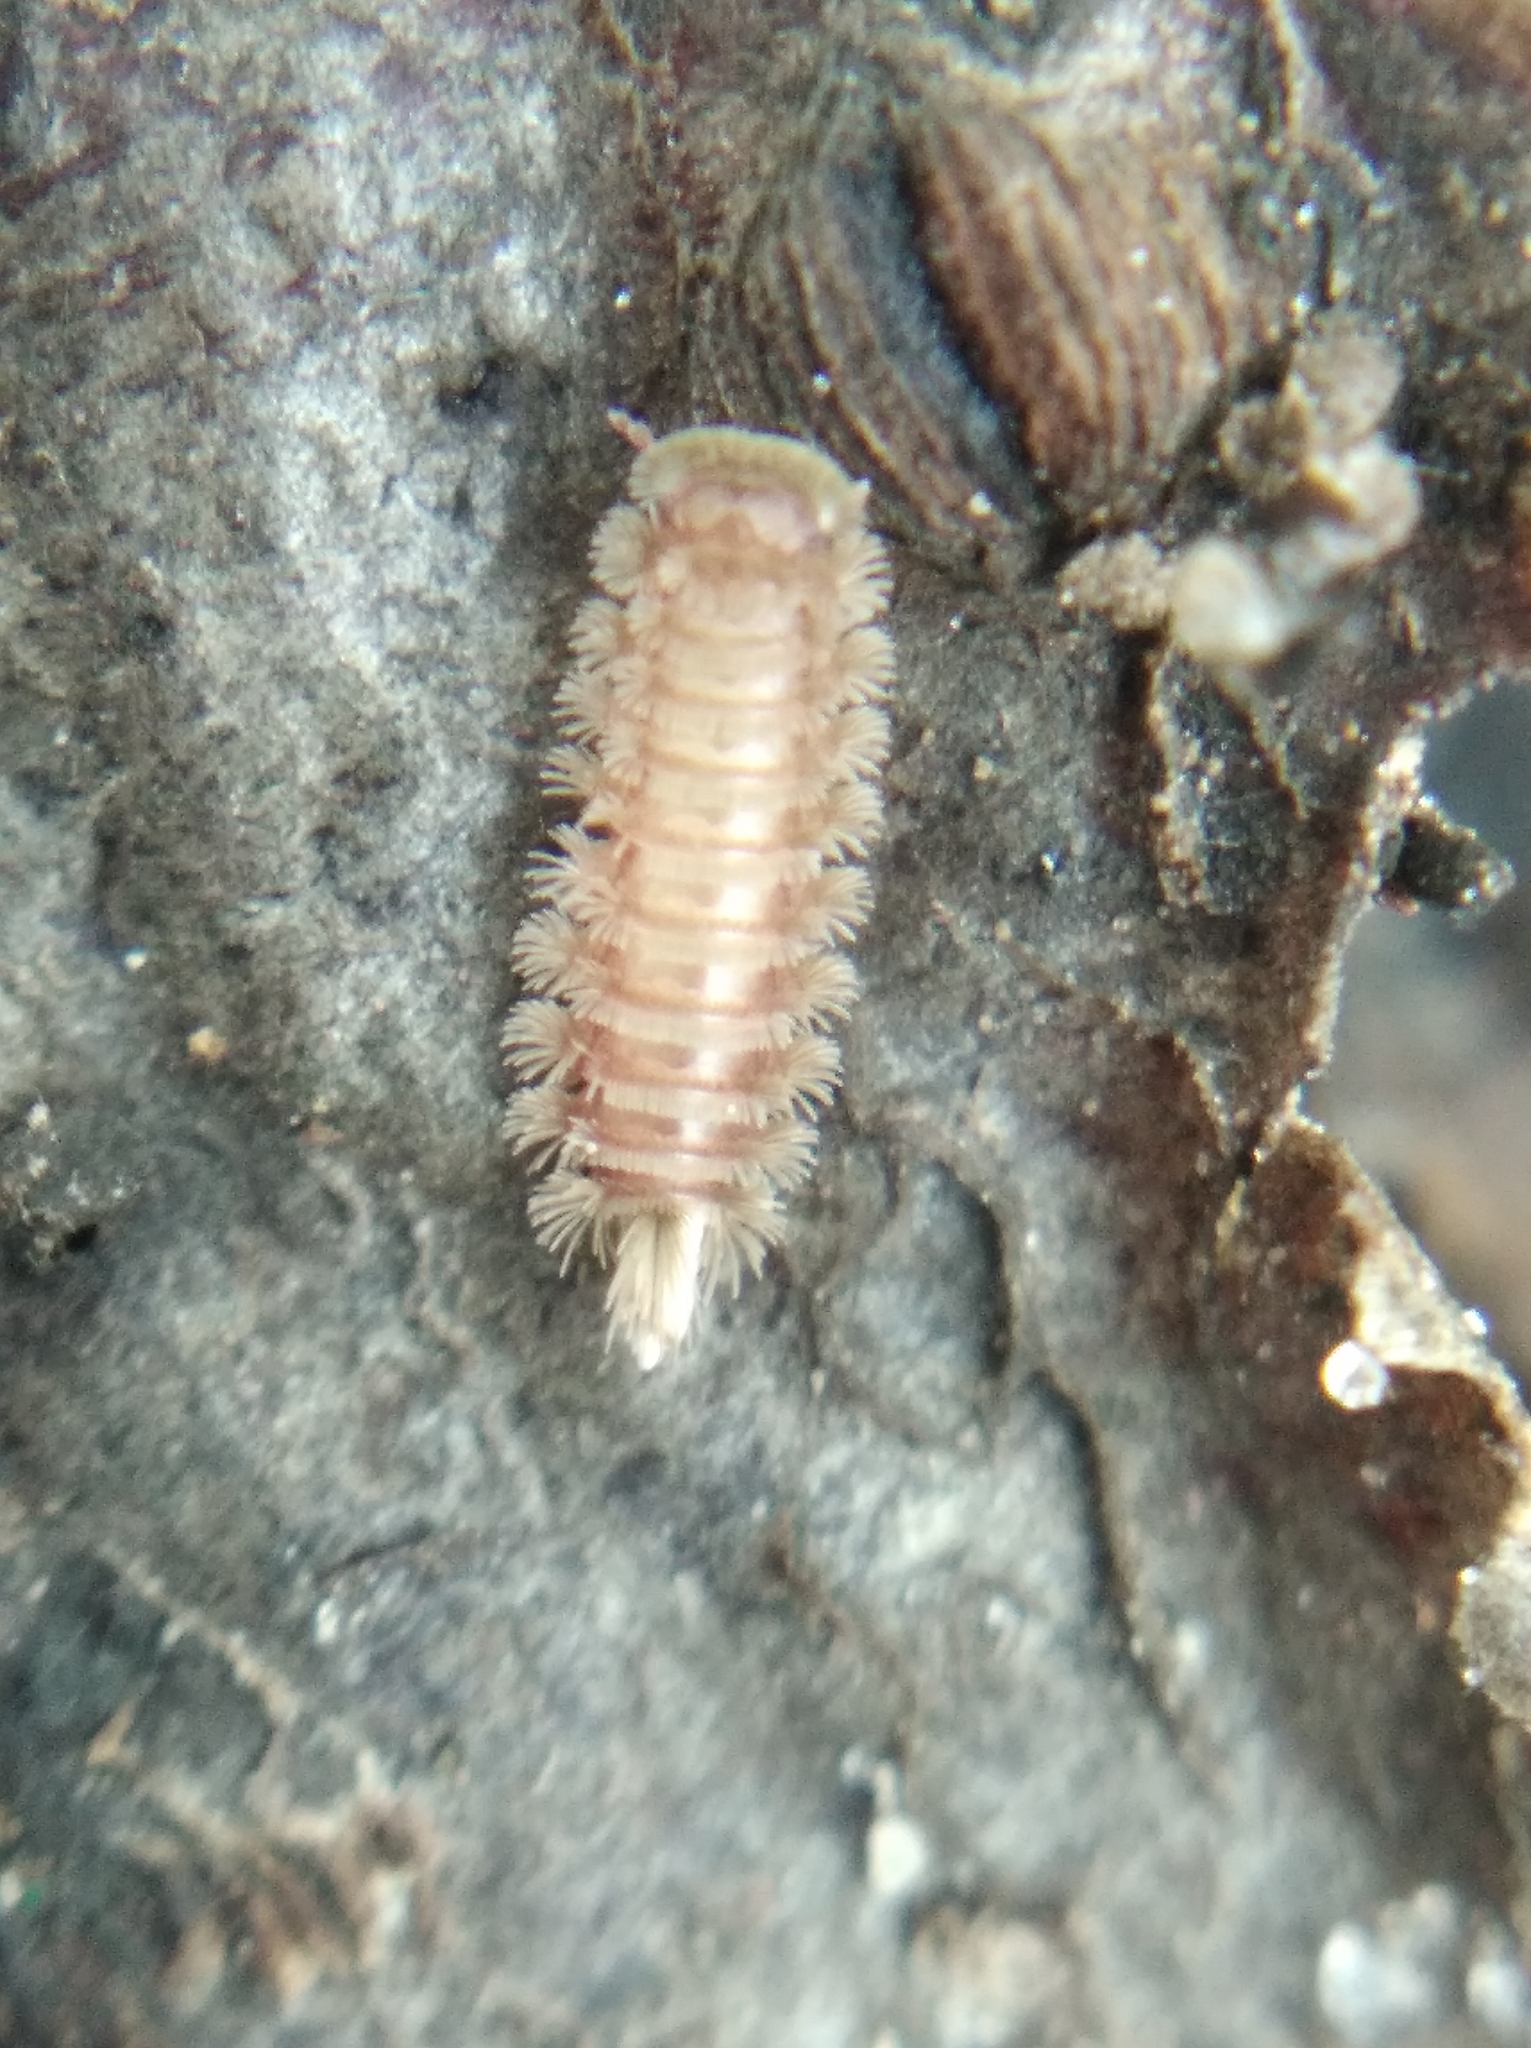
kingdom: Animalia
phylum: Arthropoda
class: Diplopoda
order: Polyxenida
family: Polyxenidae
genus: Polyxenus
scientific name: Polyxenus lagurus
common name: Bristly millipede
